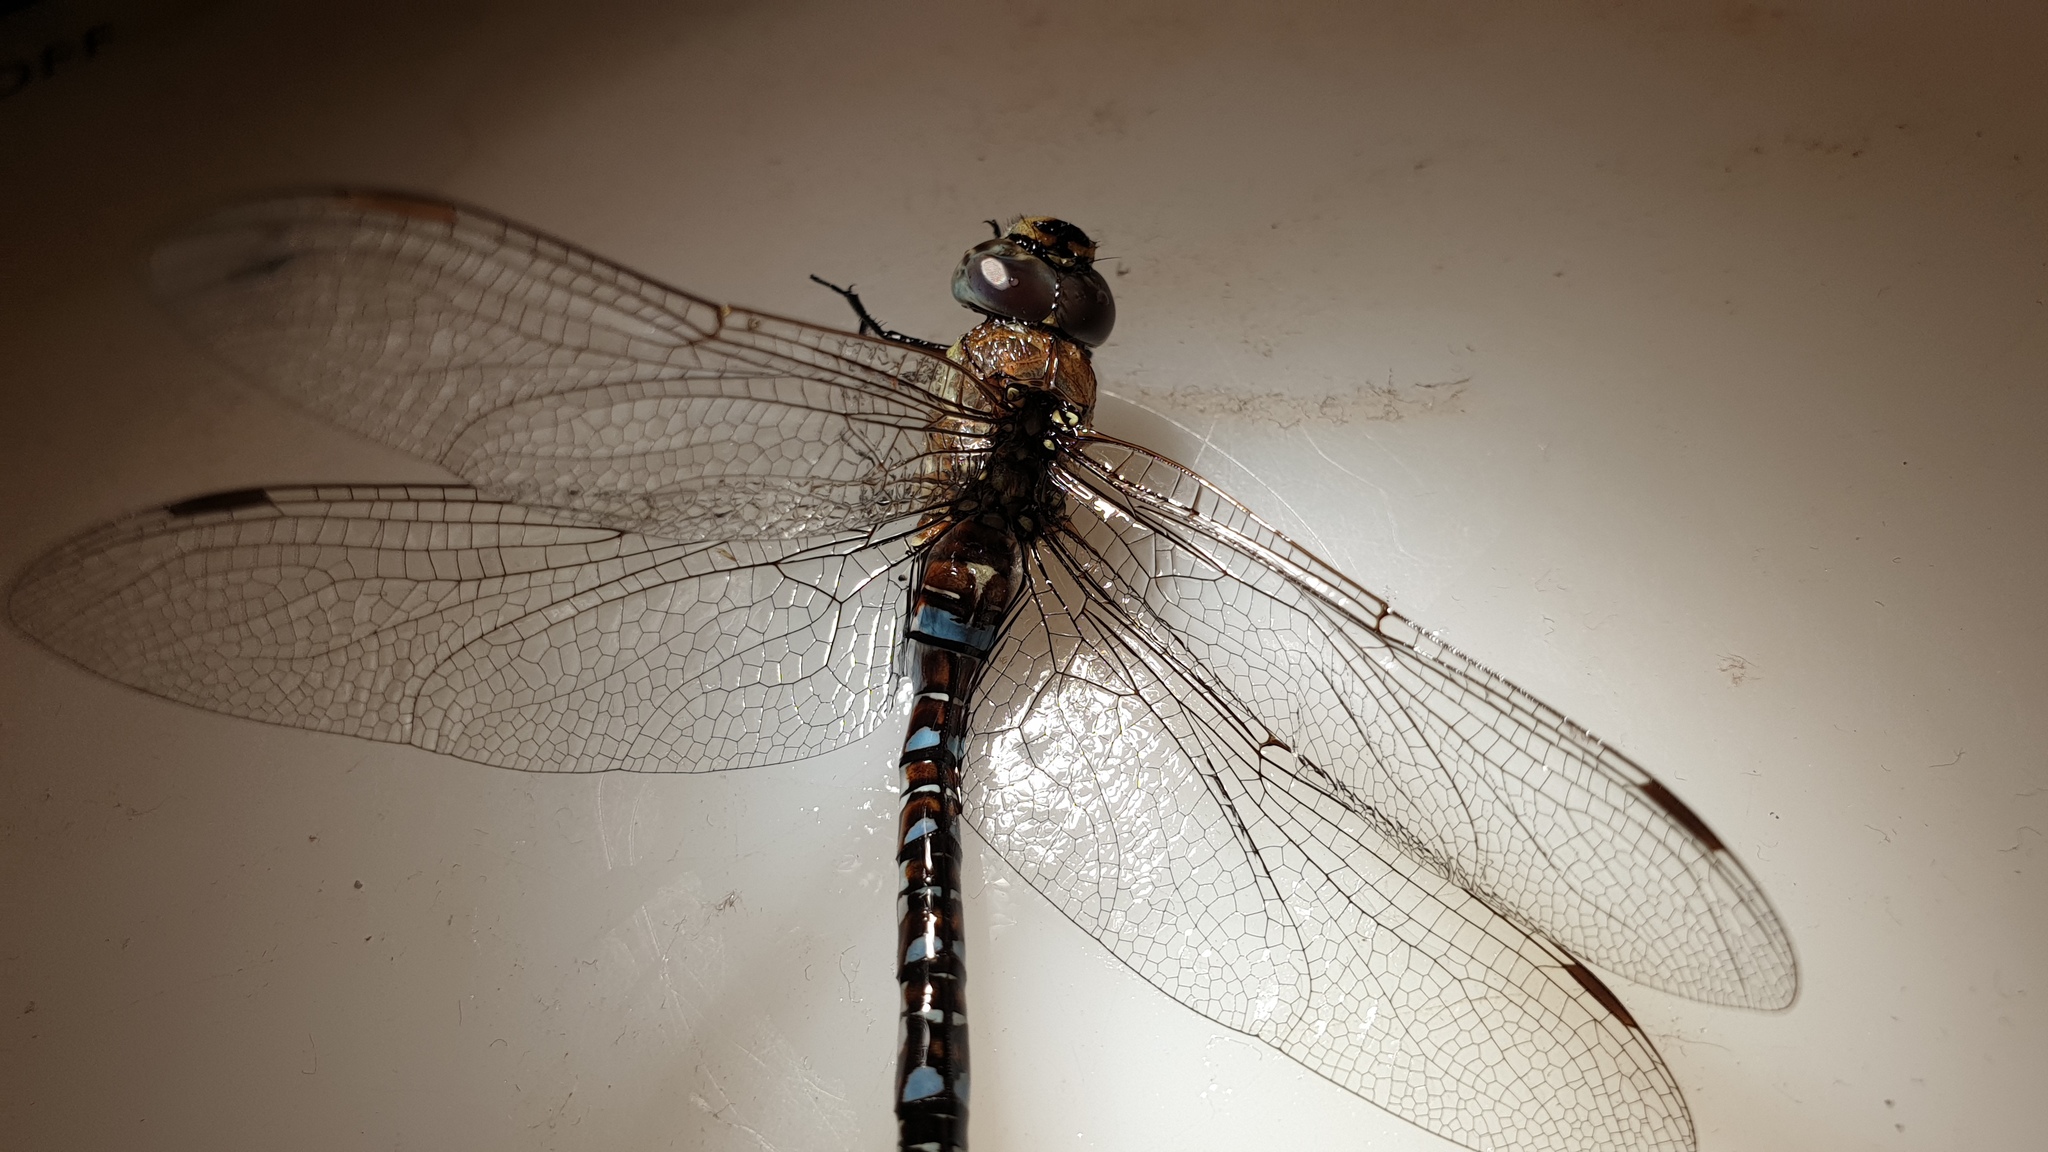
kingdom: Animalia
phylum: Arthropoda
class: Insecta
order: Odonata
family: Aeshnidae
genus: Aeshna
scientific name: Aeshna mixta
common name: Migrant hawker
